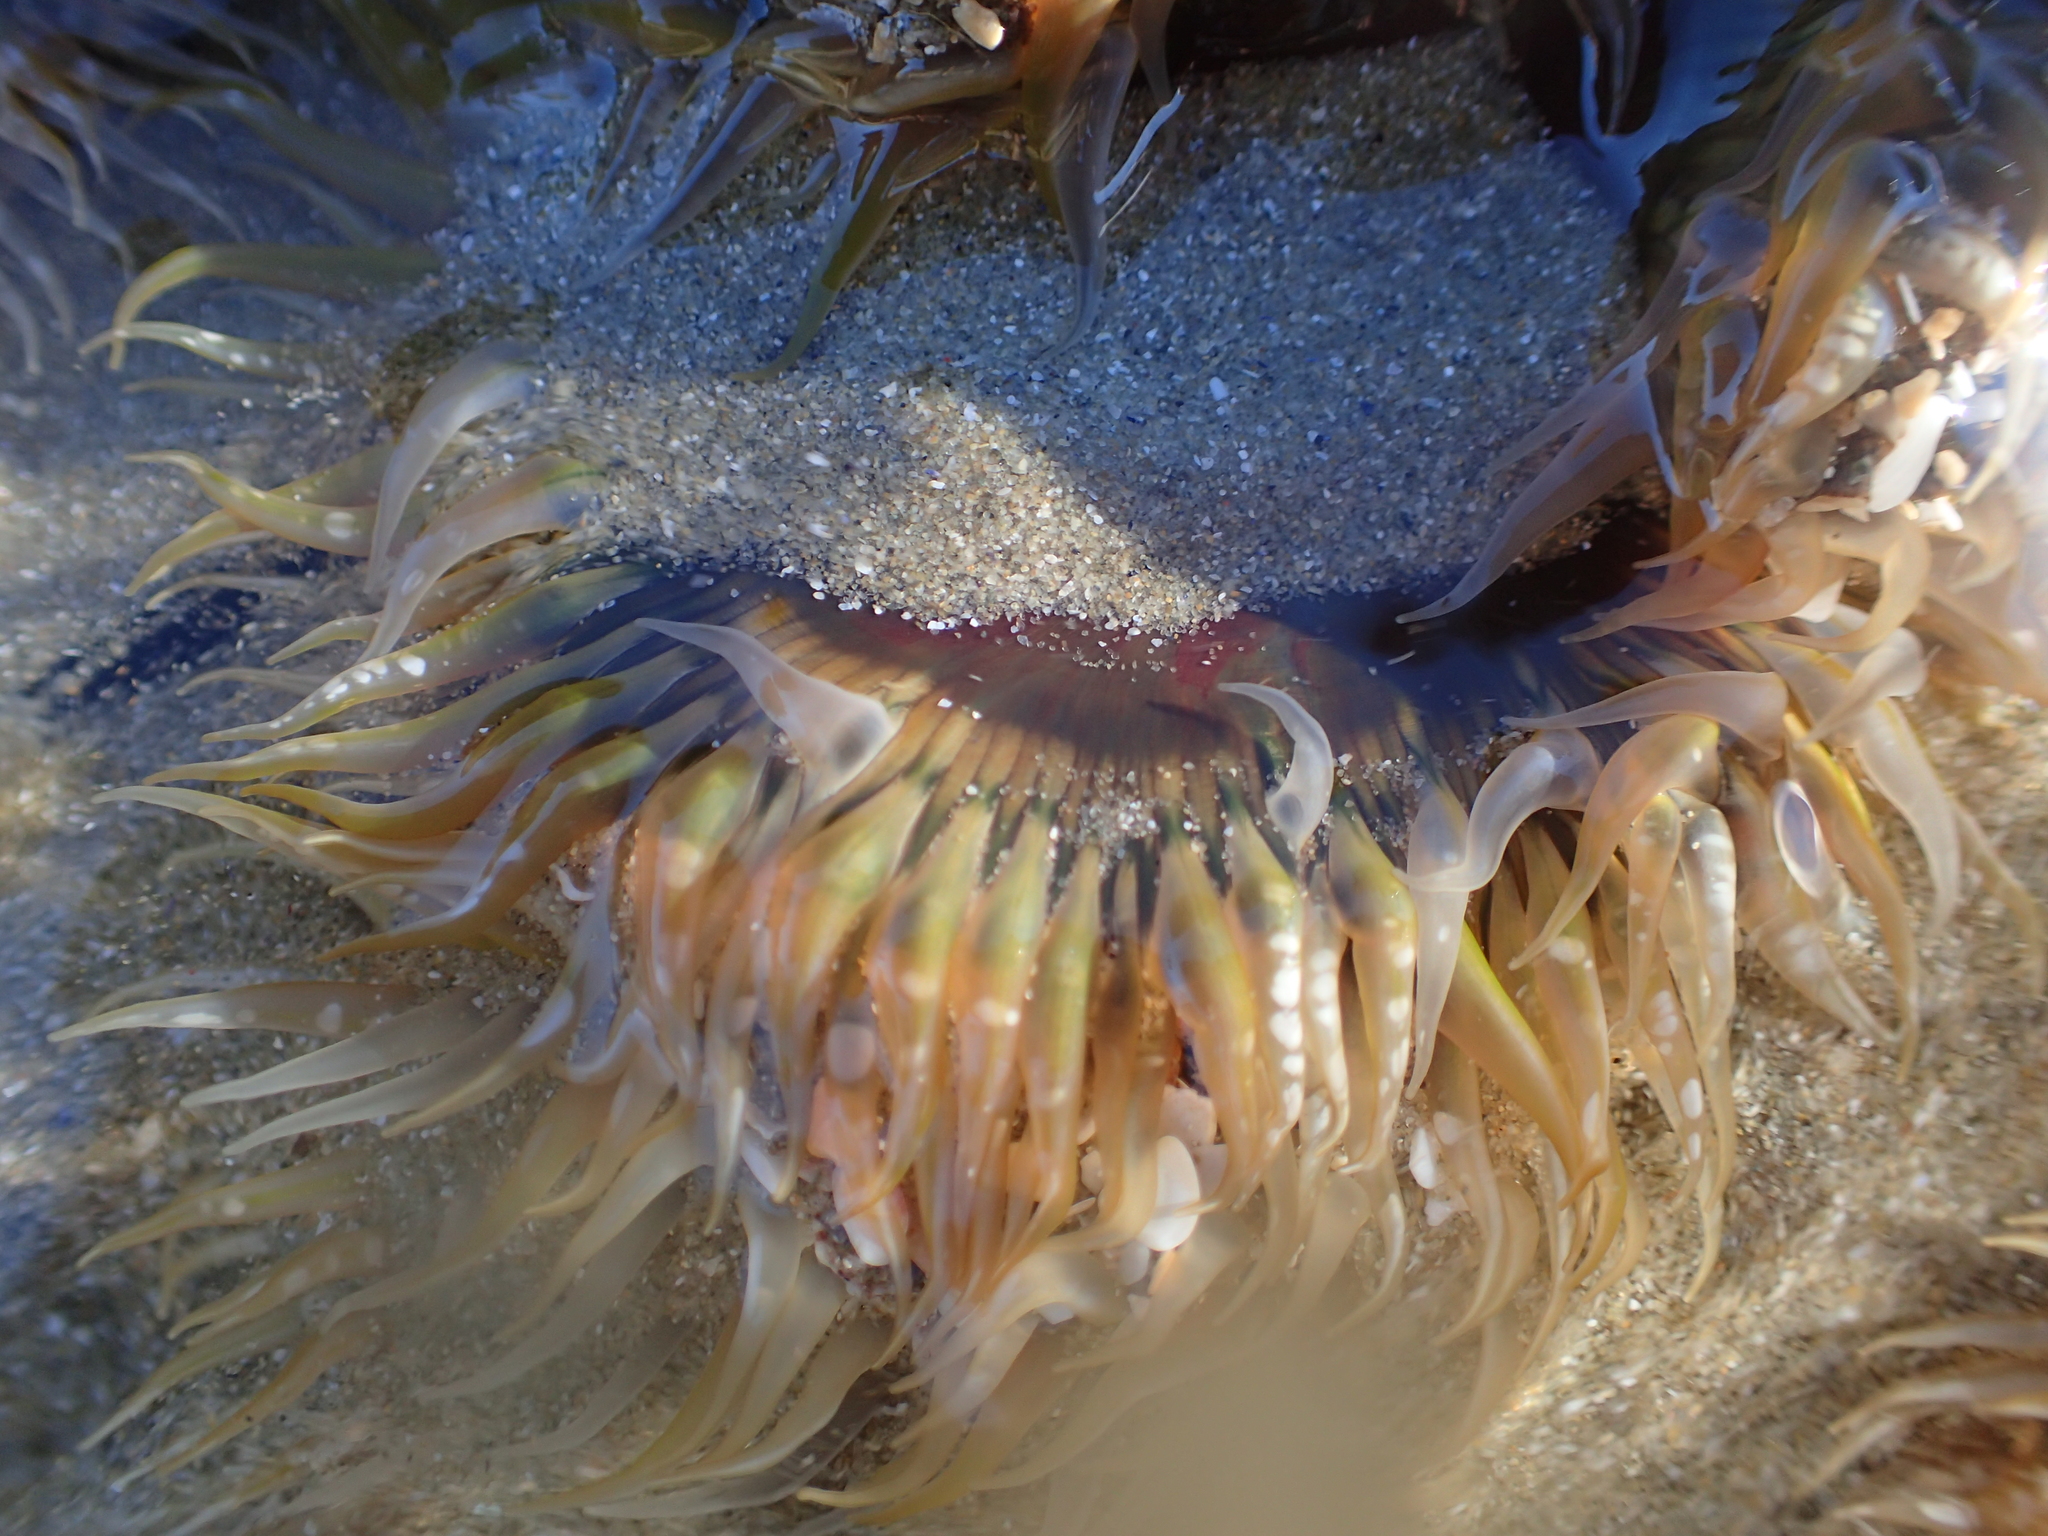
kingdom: Animalia
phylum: Cnidaria
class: Anthozoa
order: Actiniaria
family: Actiniidae
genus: Oulactis
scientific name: Oulactis muscosa
